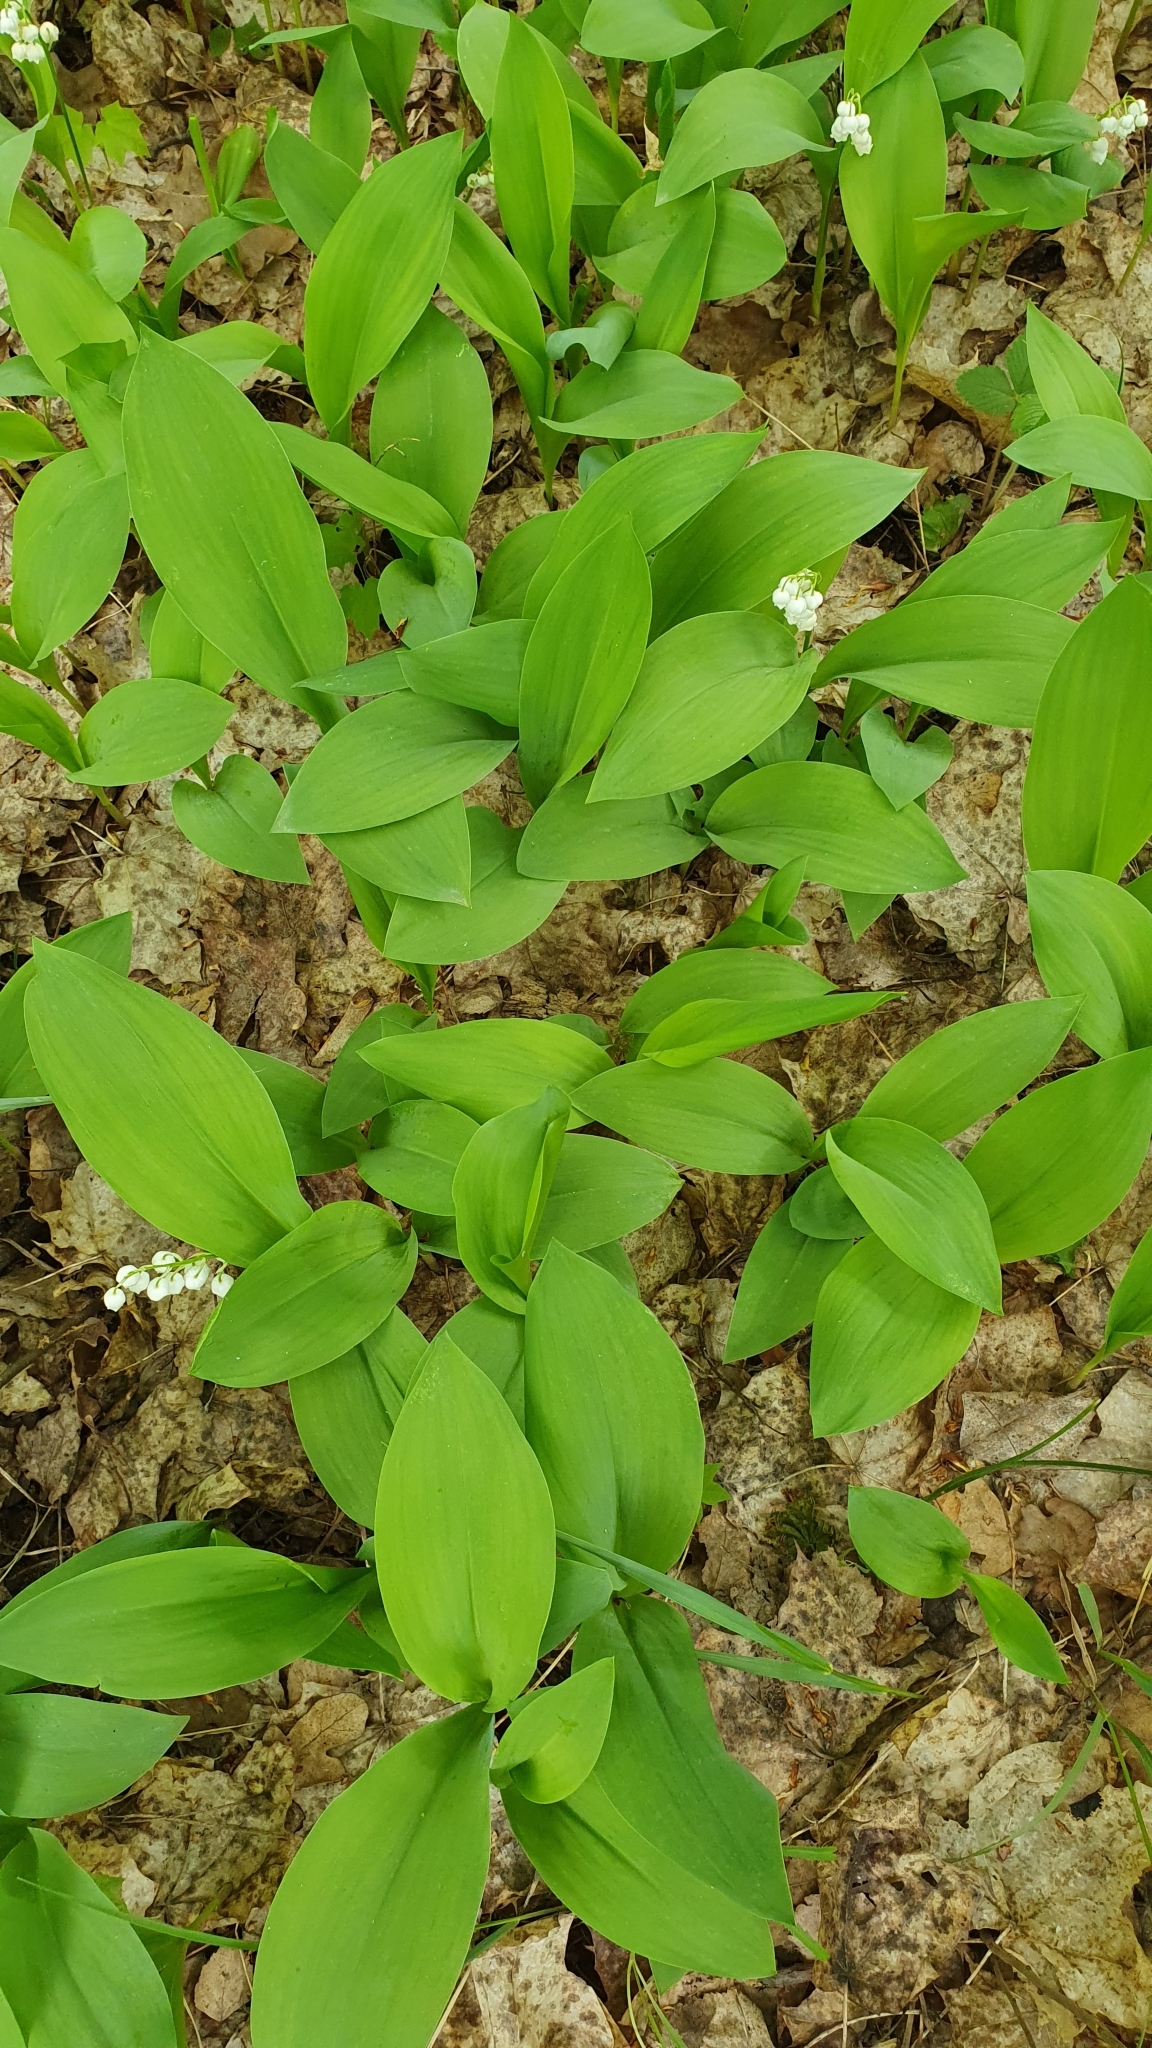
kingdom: Plantae
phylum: Tracheophyta
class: Liliopsida
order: Asparagales
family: Asparagaceae
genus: Convallaria
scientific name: Convallaria majalis
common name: Lily-of-the-valley
